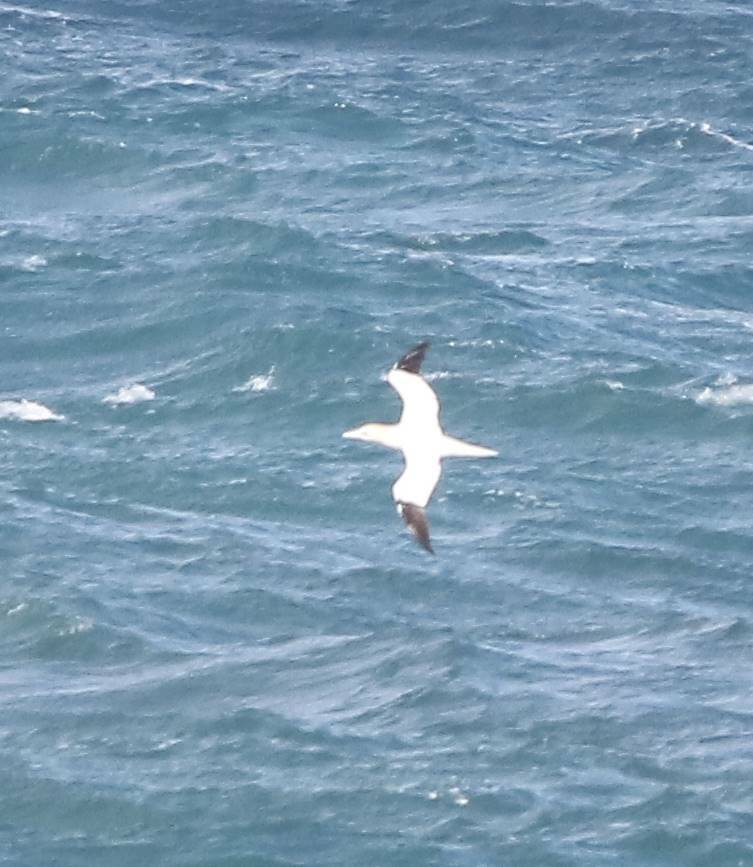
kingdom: Animalia
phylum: Chordata
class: Aves
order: Suliformes
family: Sulidae
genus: Morus
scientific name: Morus bassanus
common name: Northern gannet
